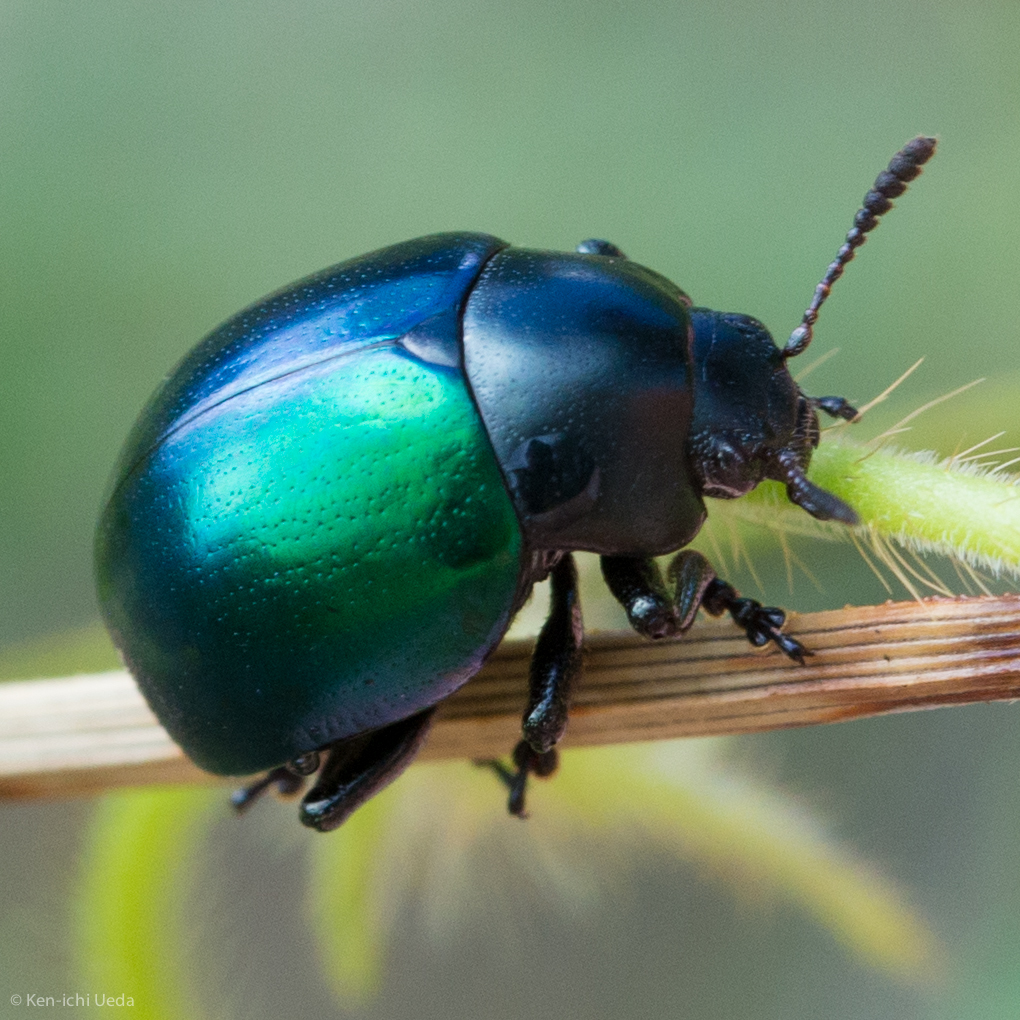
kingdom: Animalia
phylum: Arthropoda
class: Insecta
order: Coleoptera
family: Chrysomelidae
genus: Leptinotarsa
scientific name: Leptinotarsa haldemani
